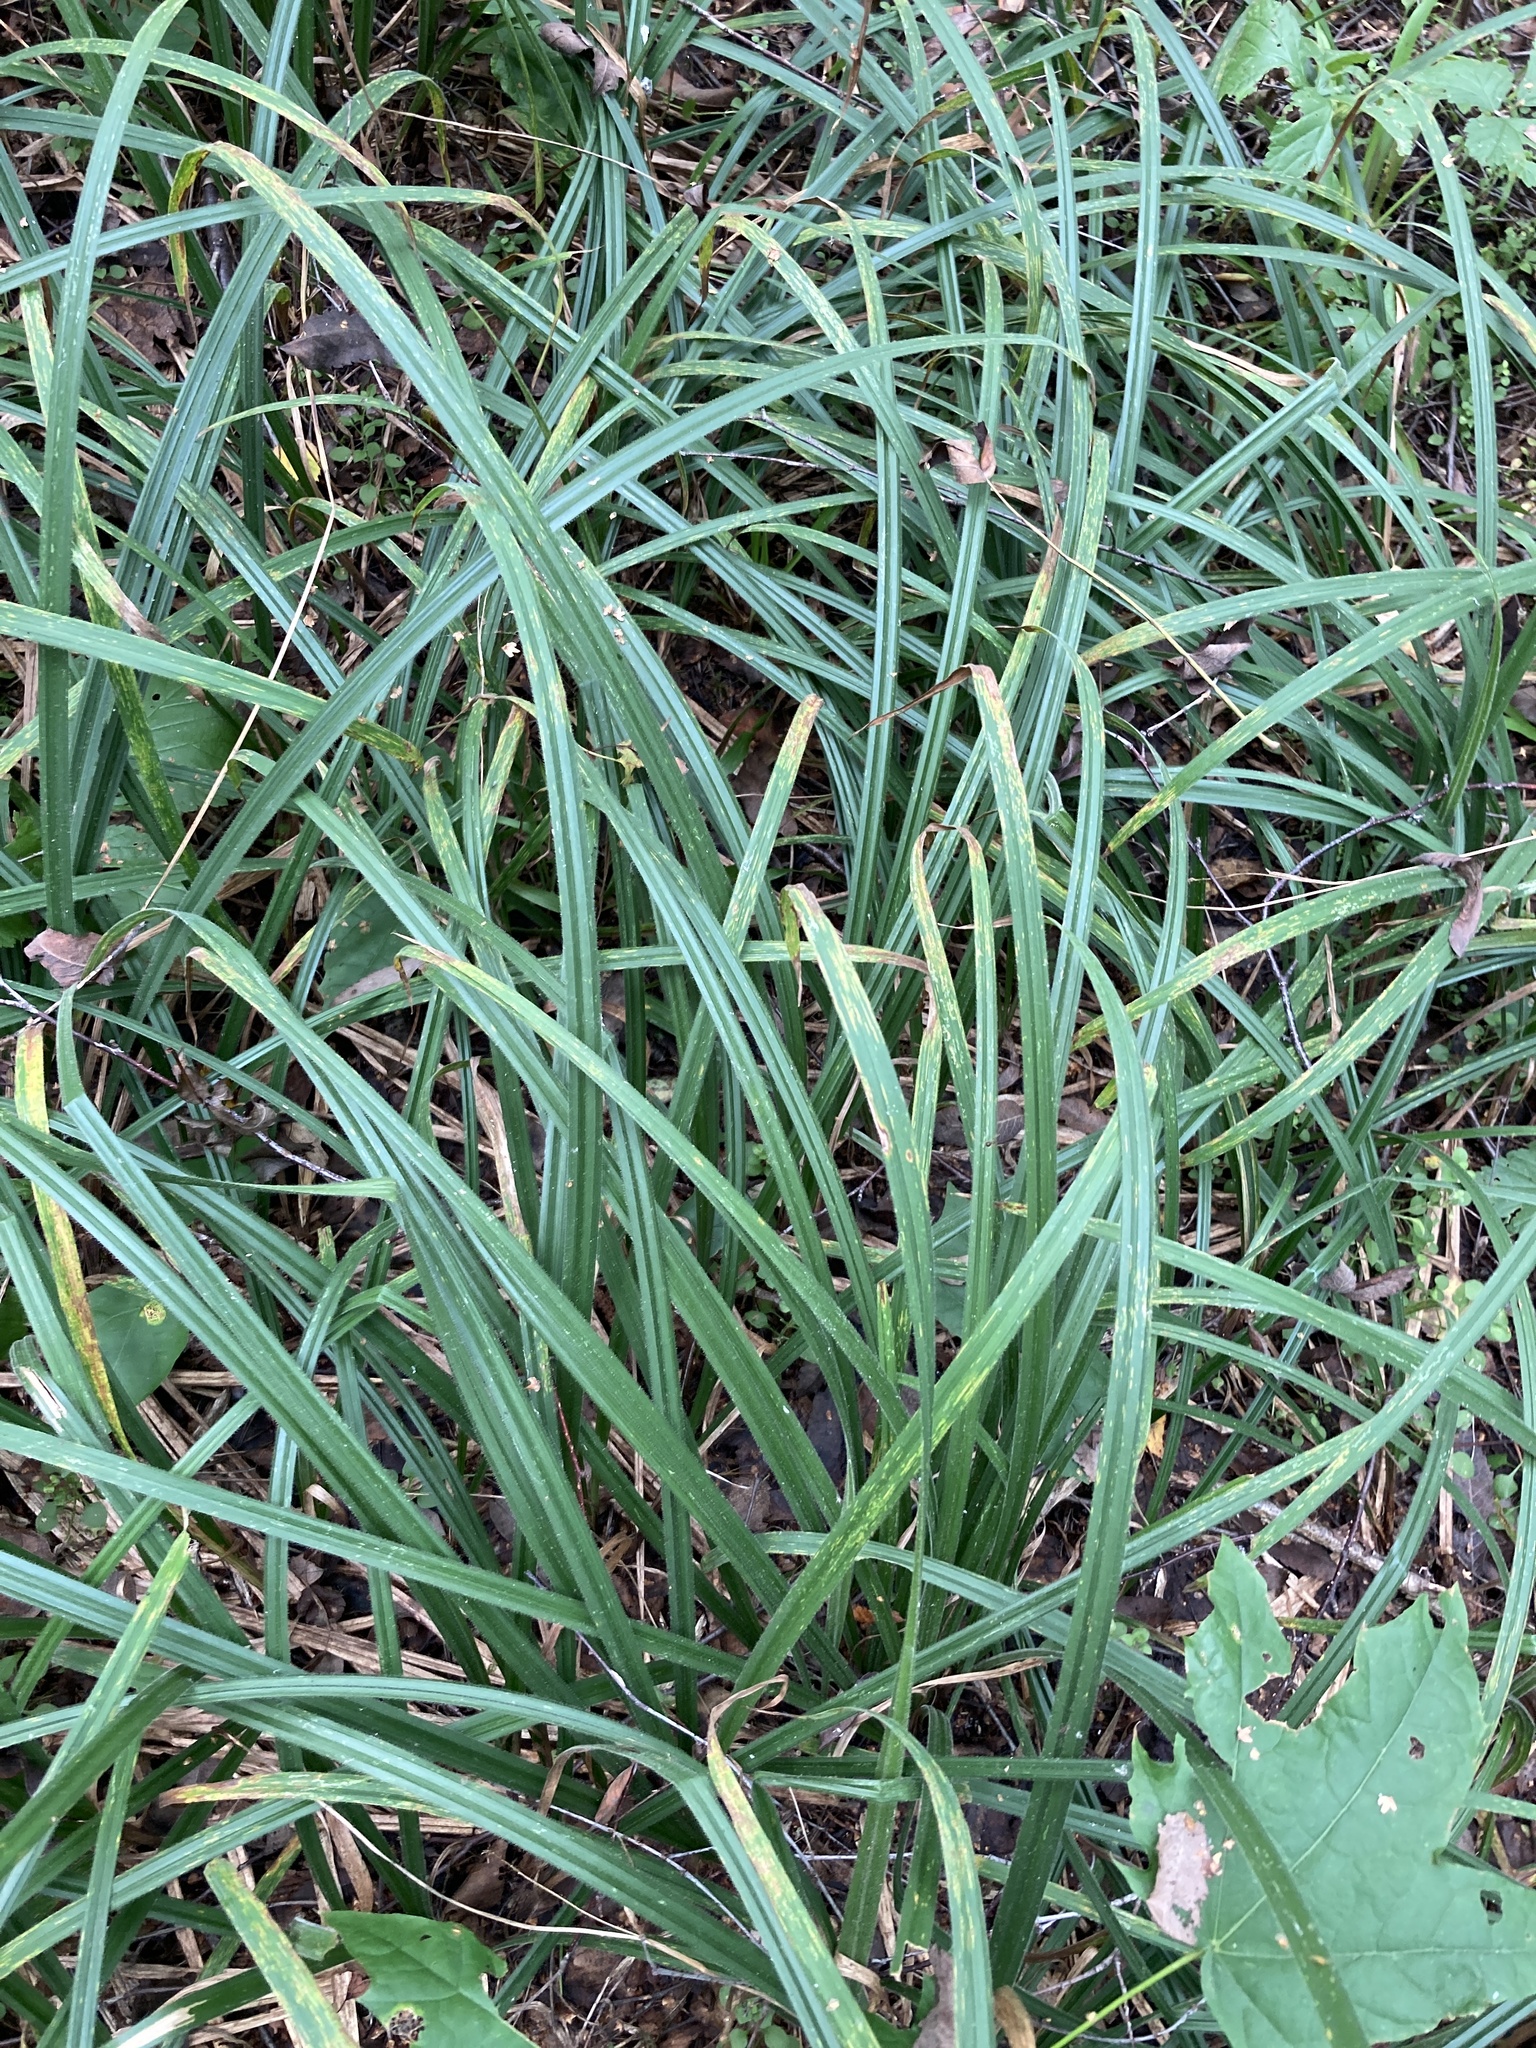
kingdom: Plantae
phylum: Tracheophyta
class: Liliopsida
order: Poales
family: Cyperaceae
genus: Carex
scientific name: Carex pilosa
